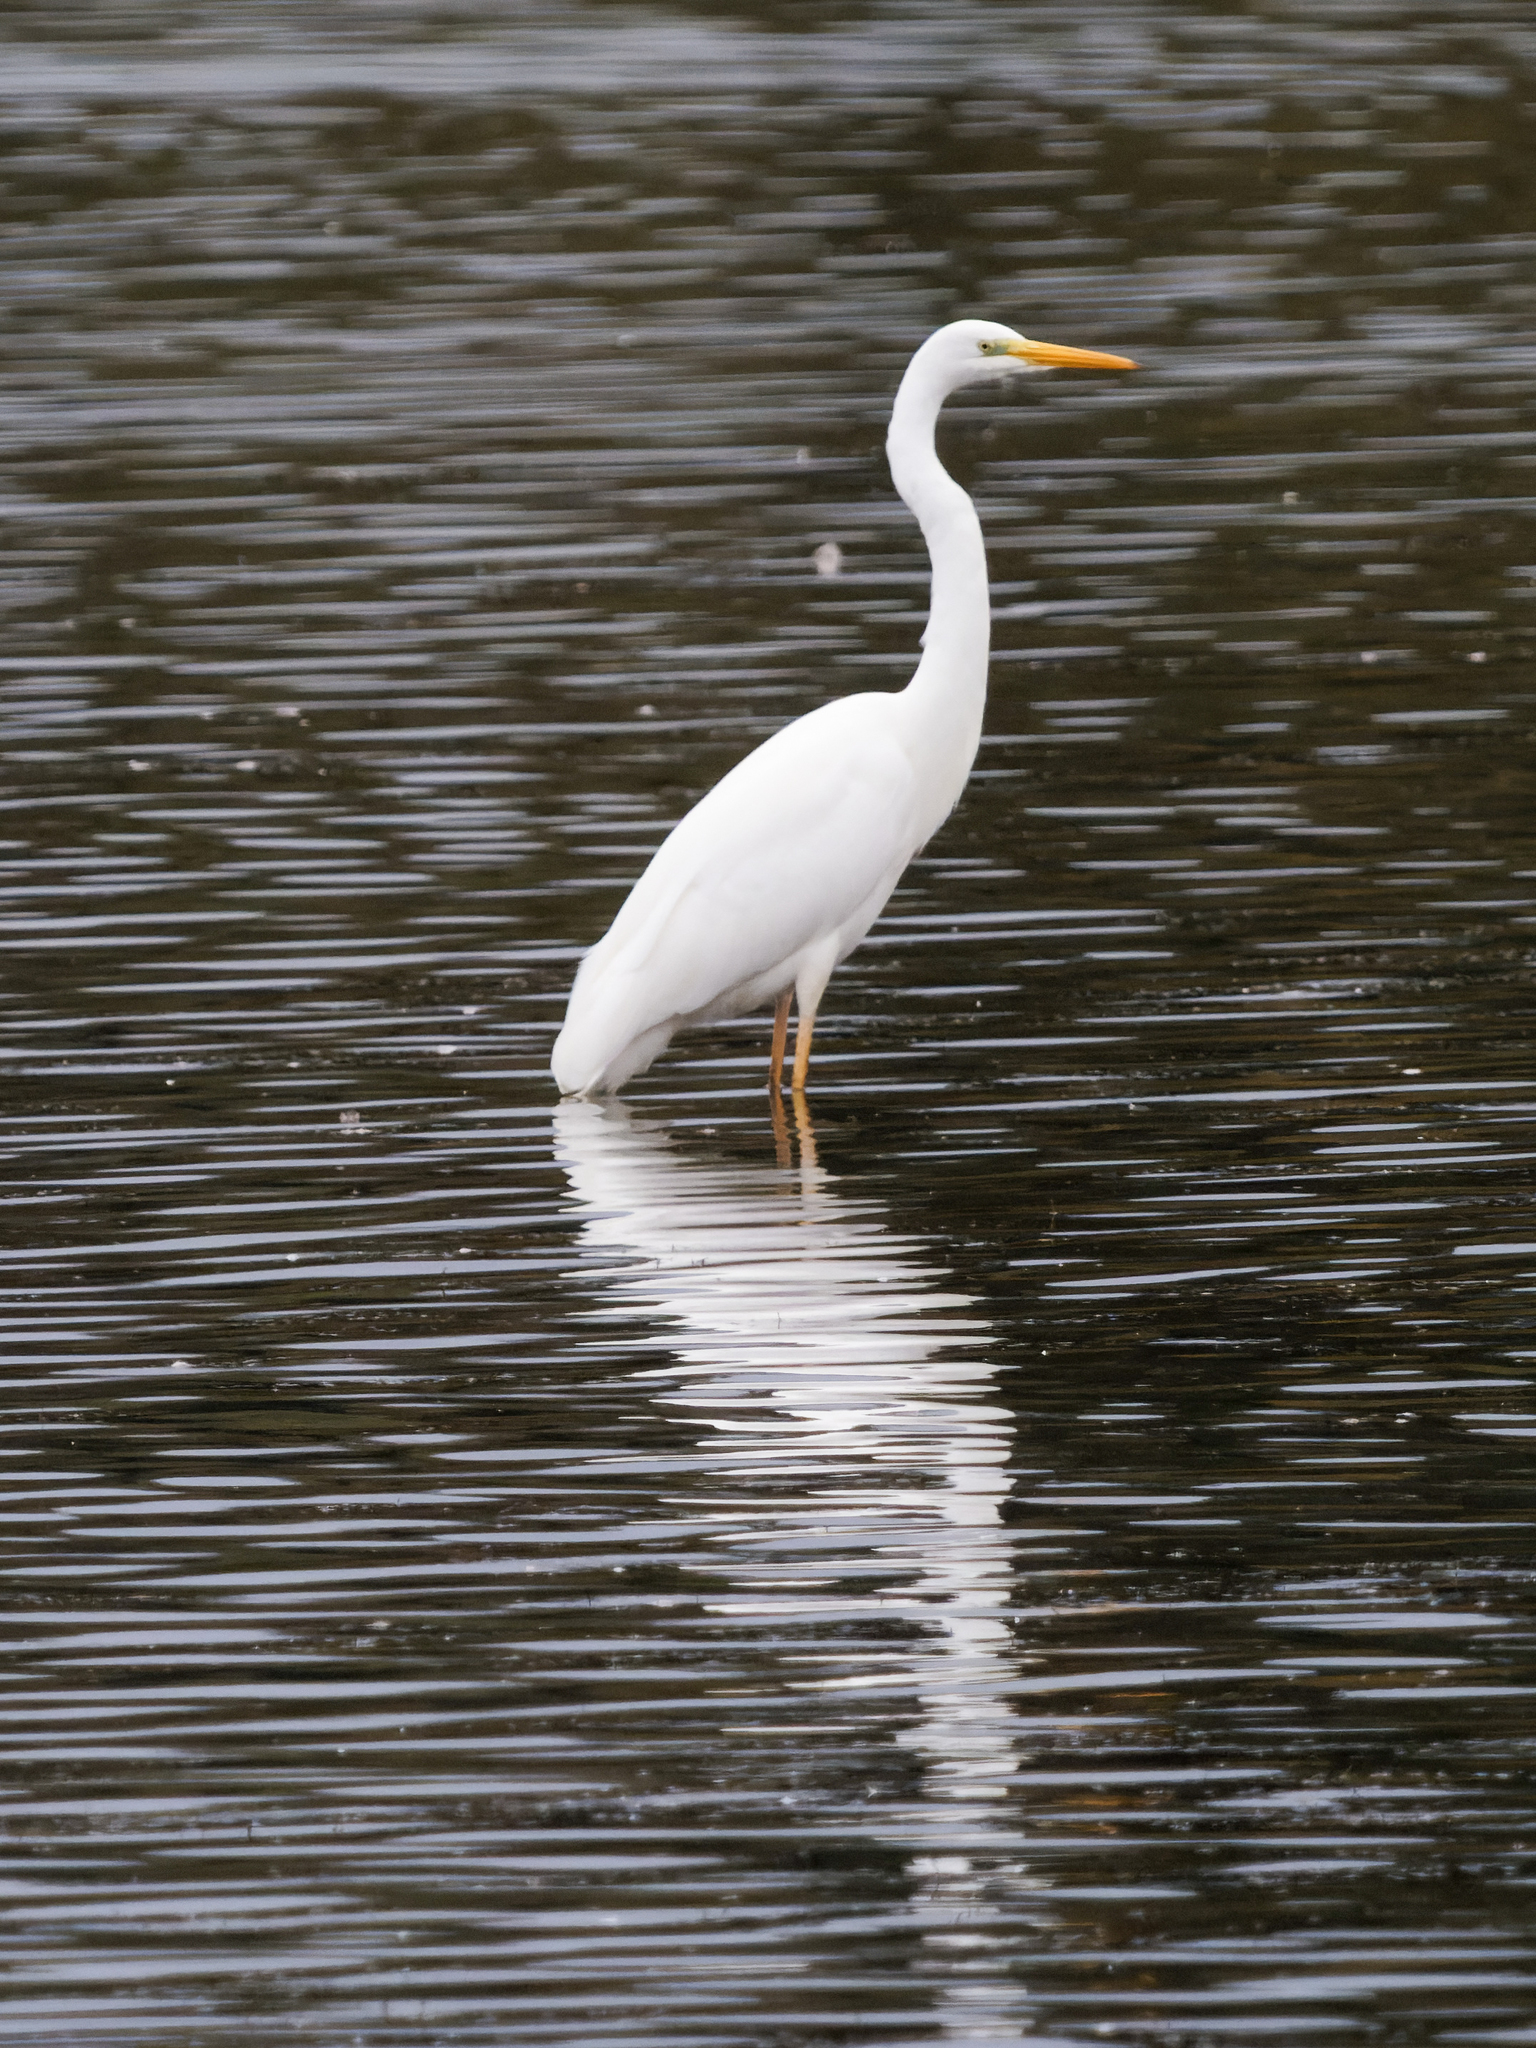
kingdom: Animalia
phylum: Chordata
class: Aves
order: Pelecaniformes
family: Ardeidae
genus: Ardea
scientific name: Ardea alba
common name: Great egret
